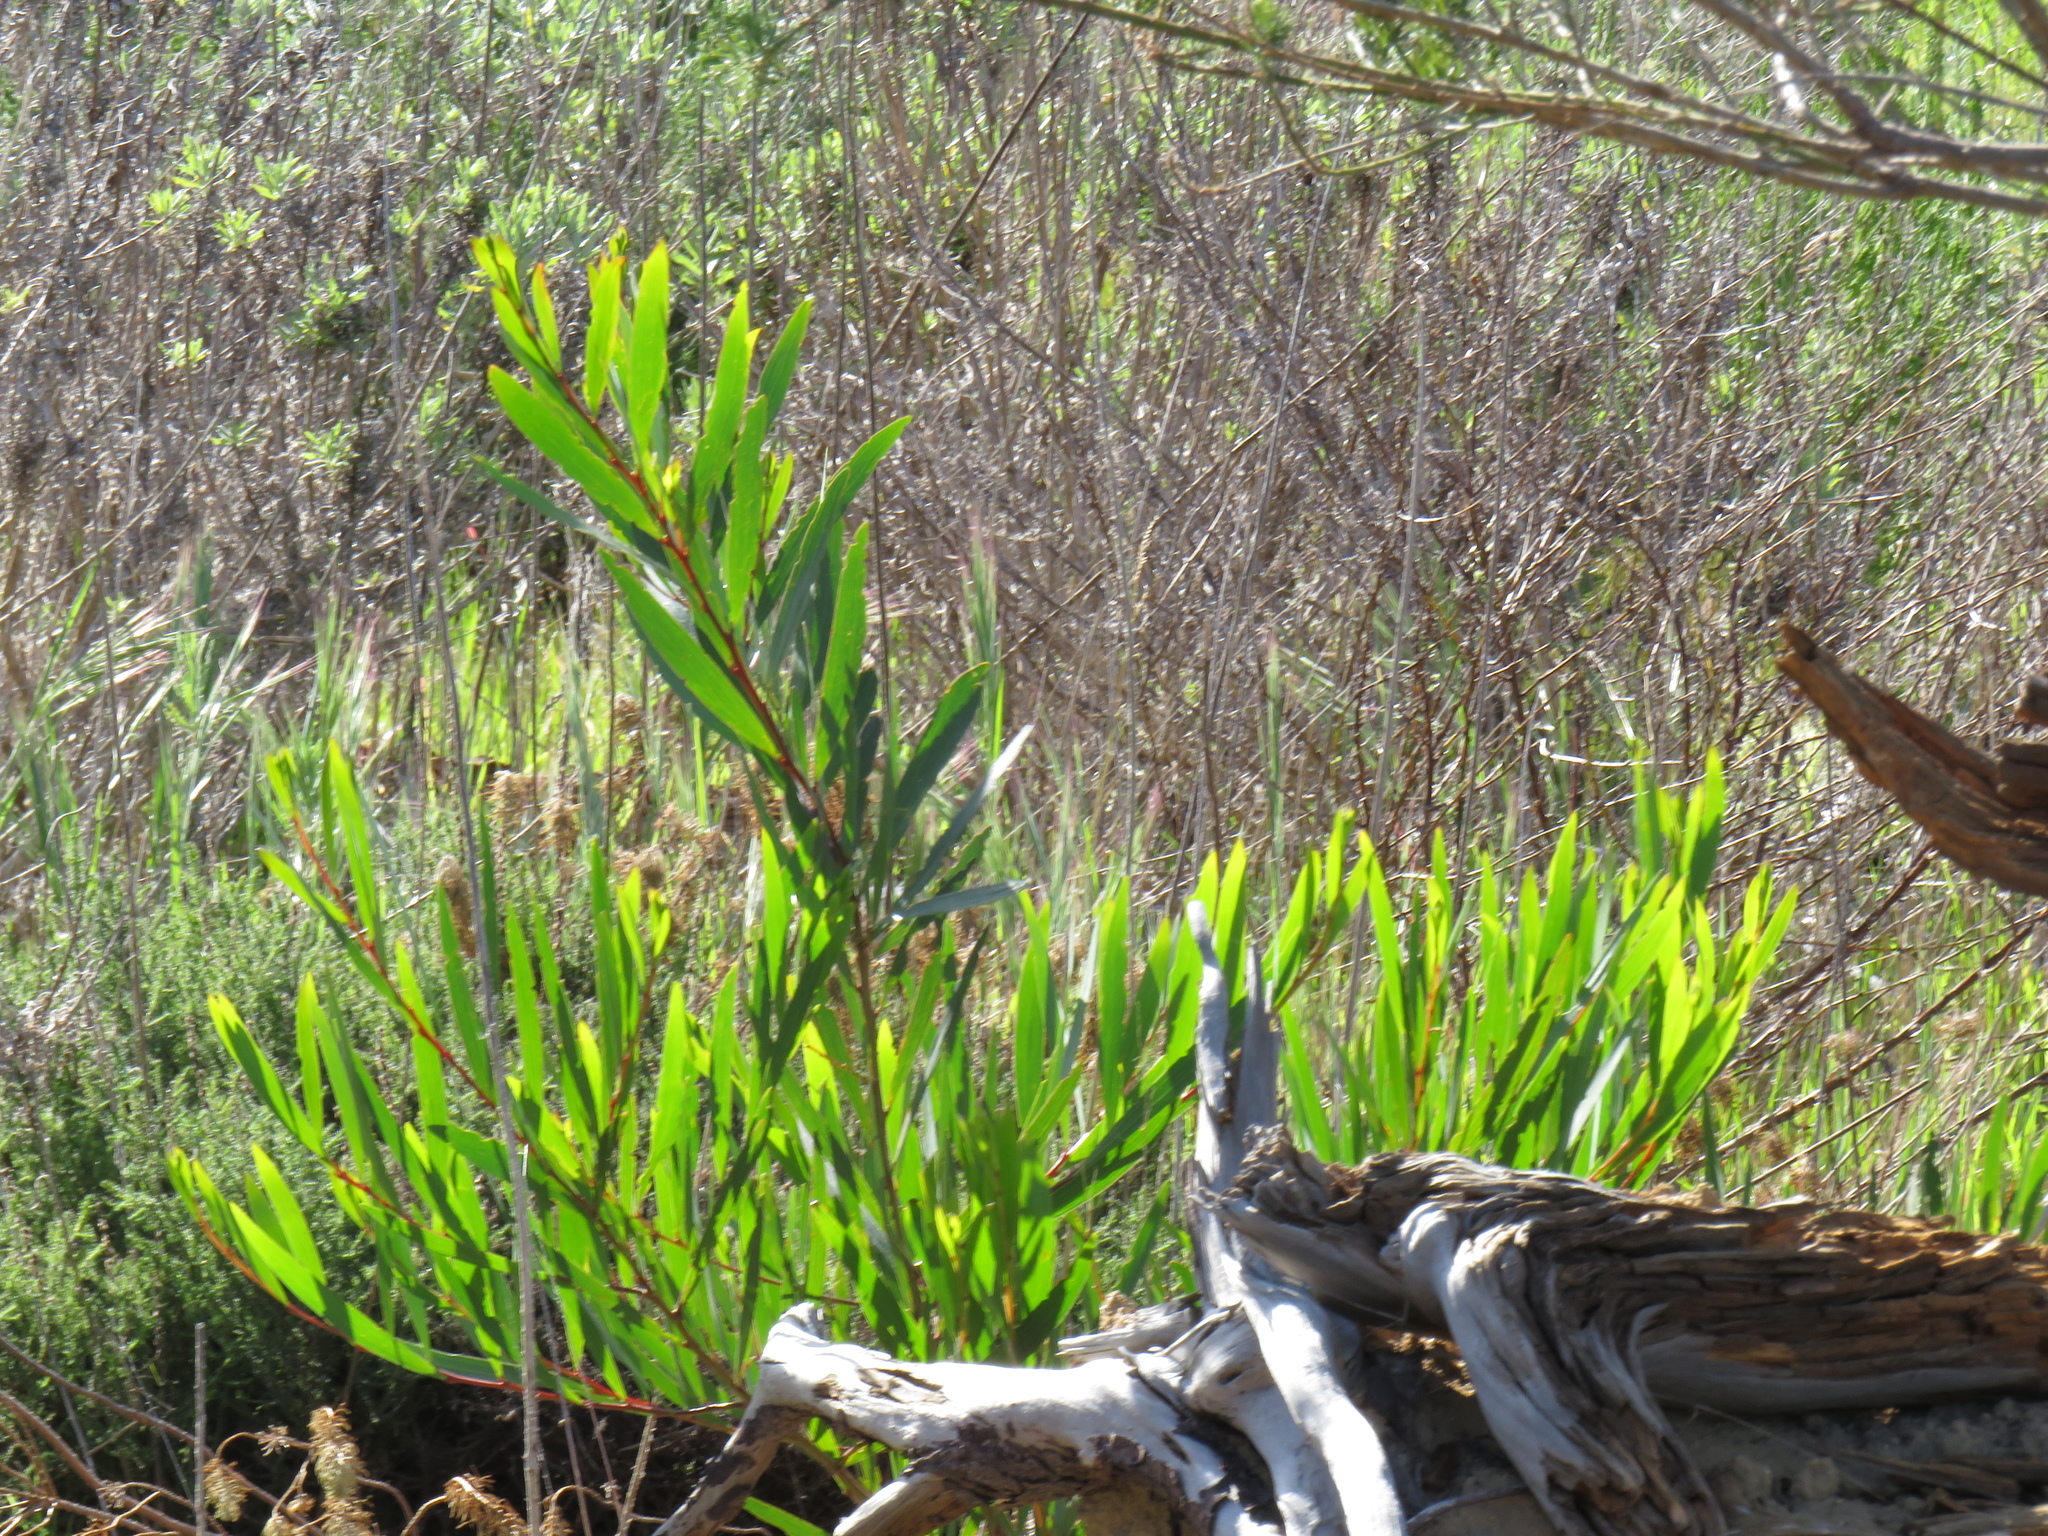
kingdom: Plantae
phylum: Tracheophyta
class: Magnoliopsida
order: Fabales
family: Fabaceae
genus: Acacia
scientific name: Acacia longifolia
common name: Sydney golden wattle
